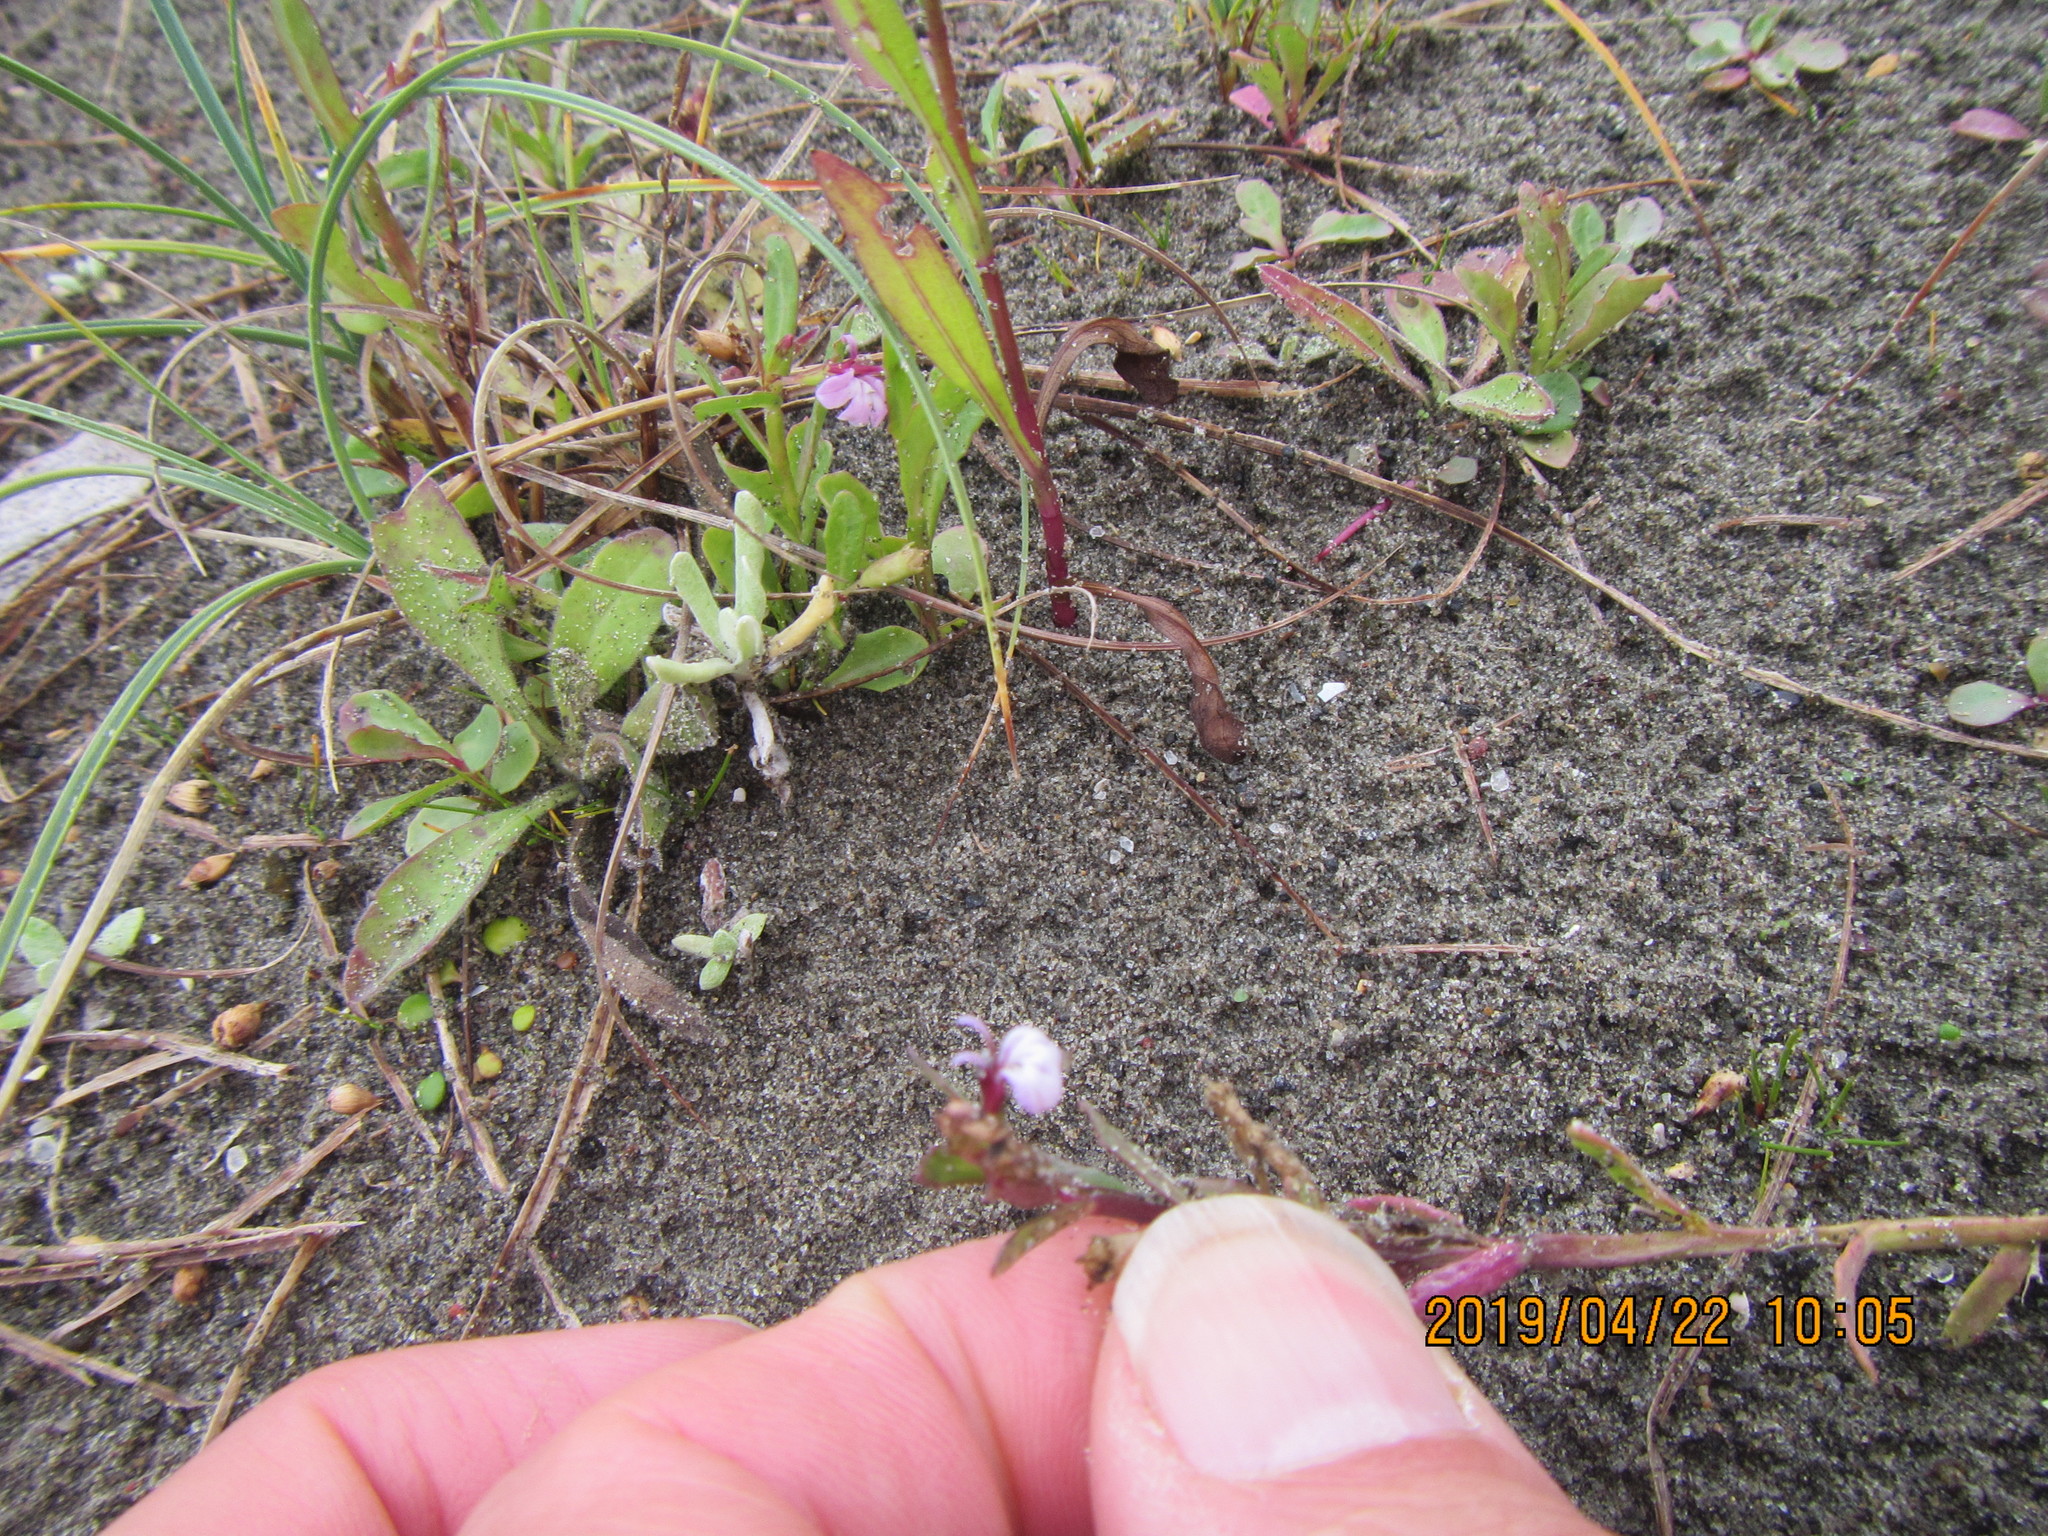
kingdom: Plantae
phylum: Tracheophyta
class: Magnoliopsida
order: Asterales
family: Campanulaceae
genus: Lobelia
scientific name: Lobelia anceps
